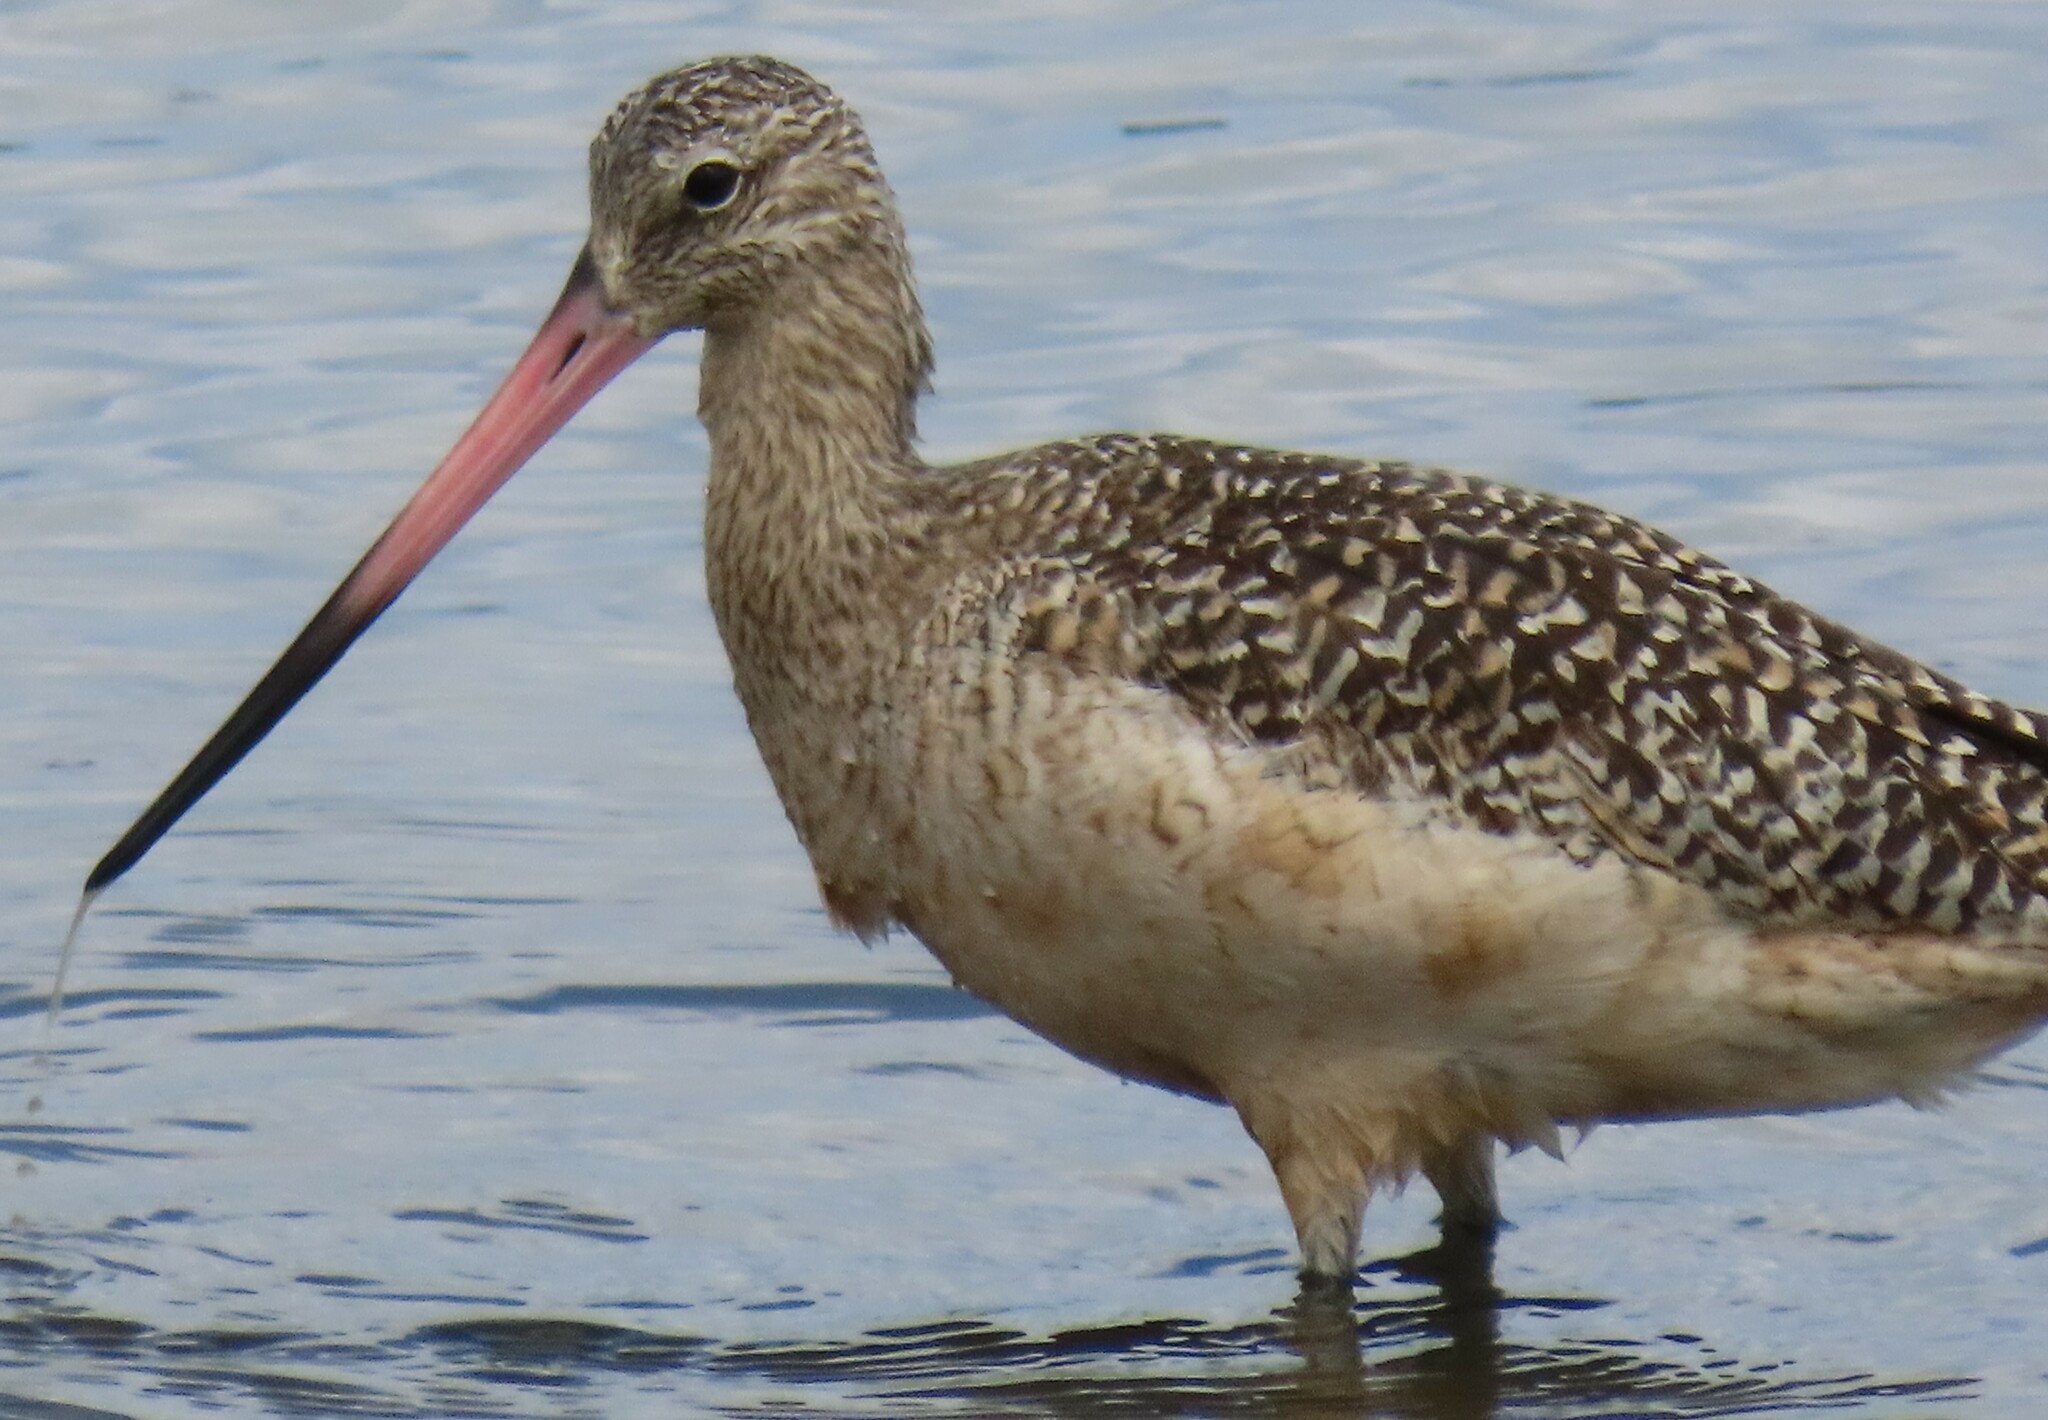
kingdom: Animalia
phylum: Chordata
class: Aves
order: Charadriiformes
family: Scolopacidae
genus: Limosa
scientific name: Limosa fedoa
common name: Marbled godwit
